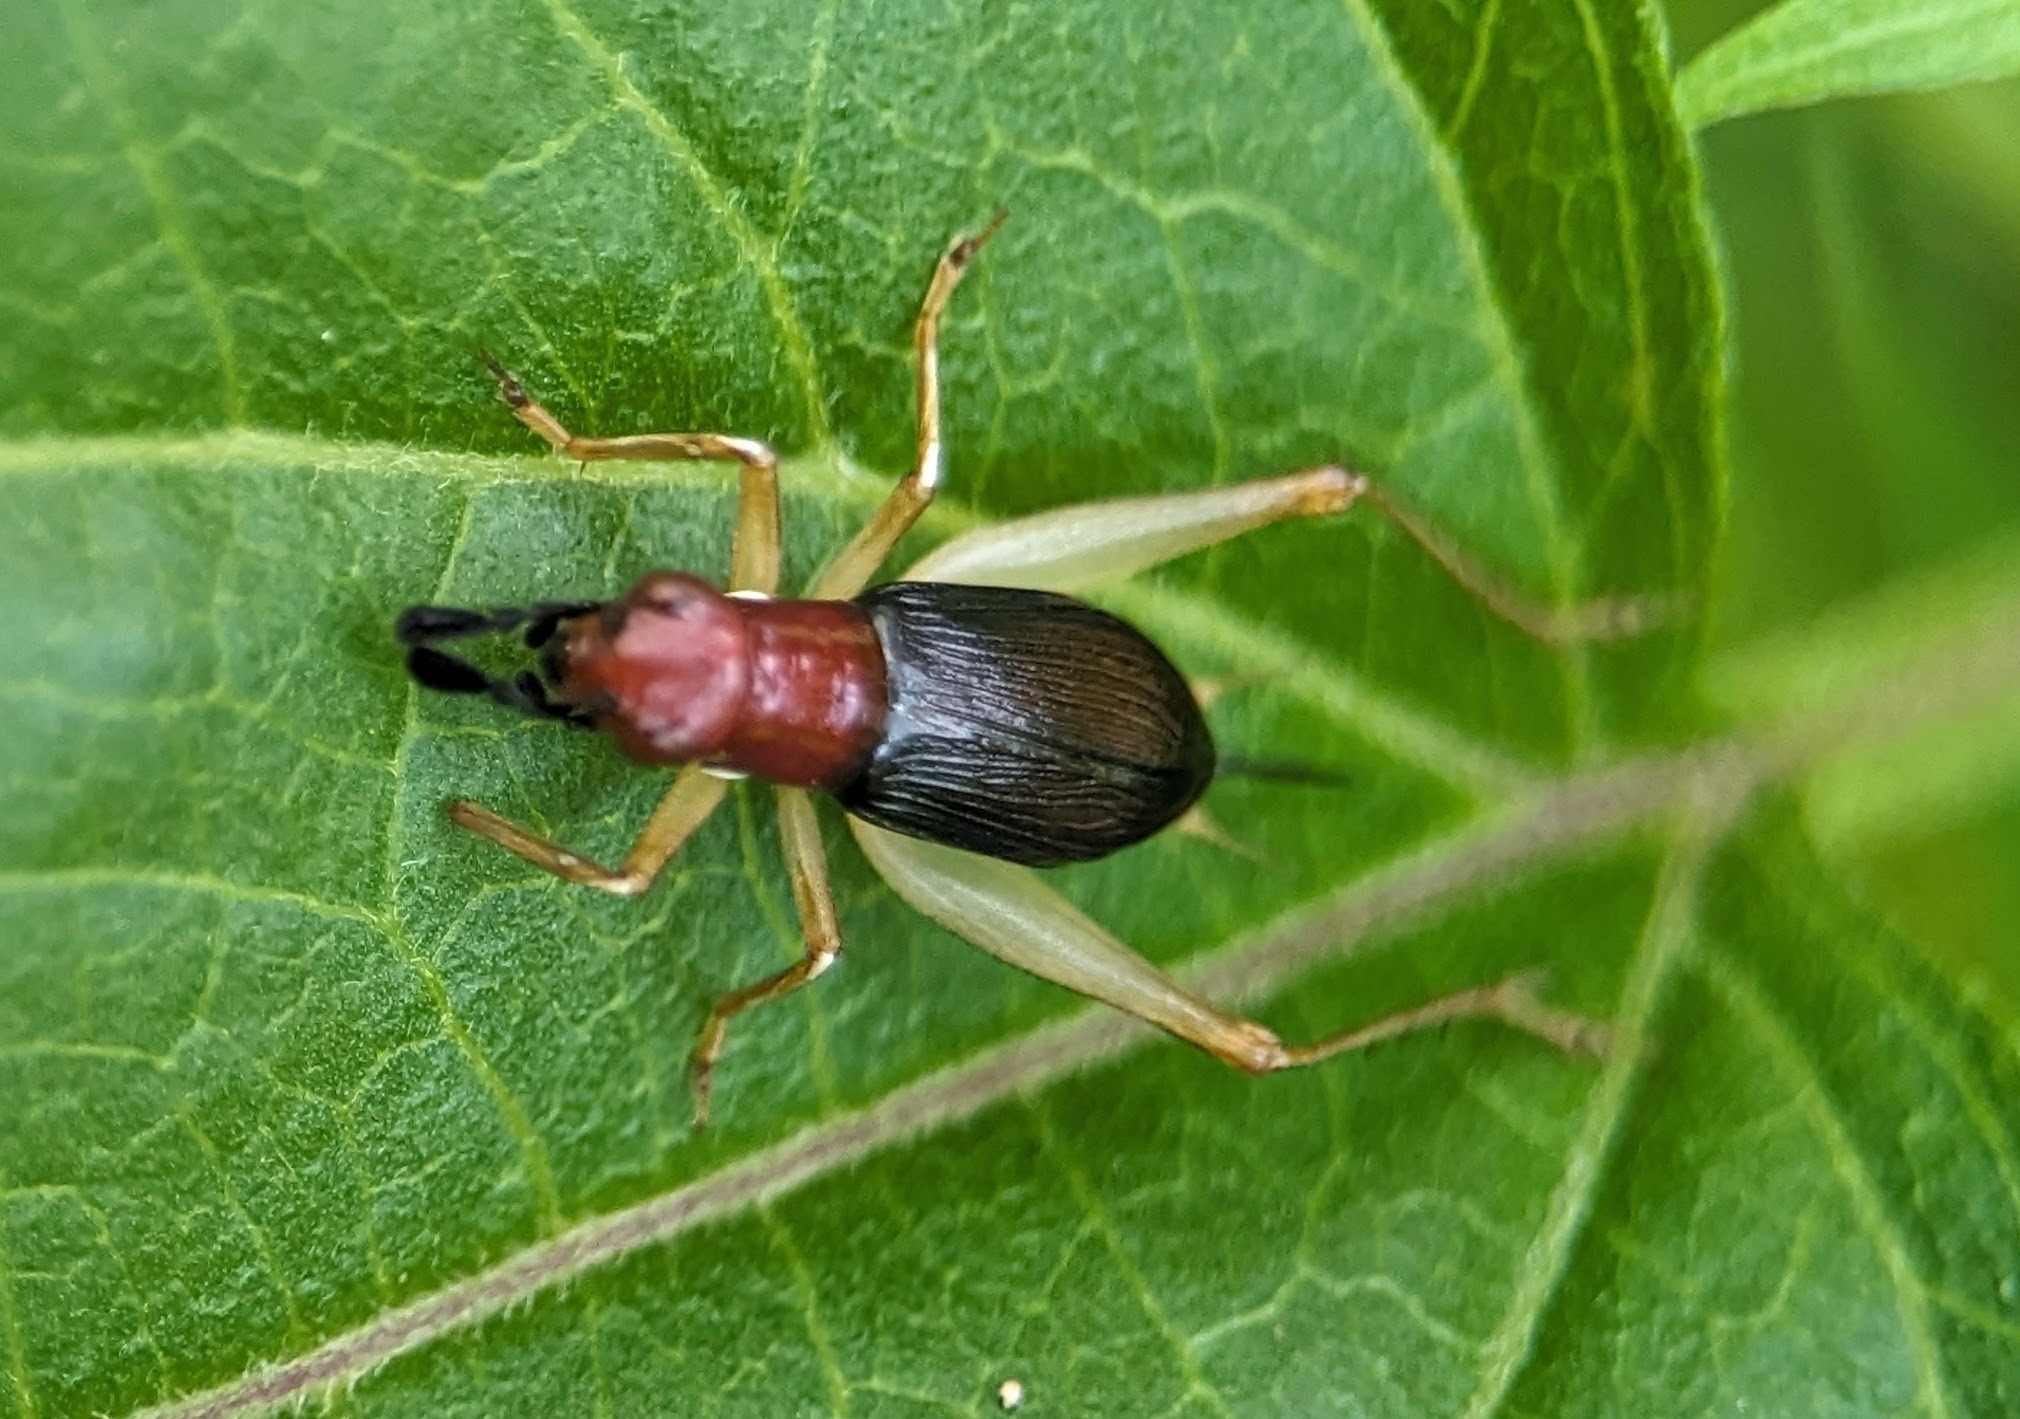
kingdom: Animalia
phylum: Arthropoda
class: Insecta
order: Orthoptera
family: Trigonidiidae
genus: Phyllopalpus
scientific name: Phyllopalpus pulchellus
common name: Handsome trig
